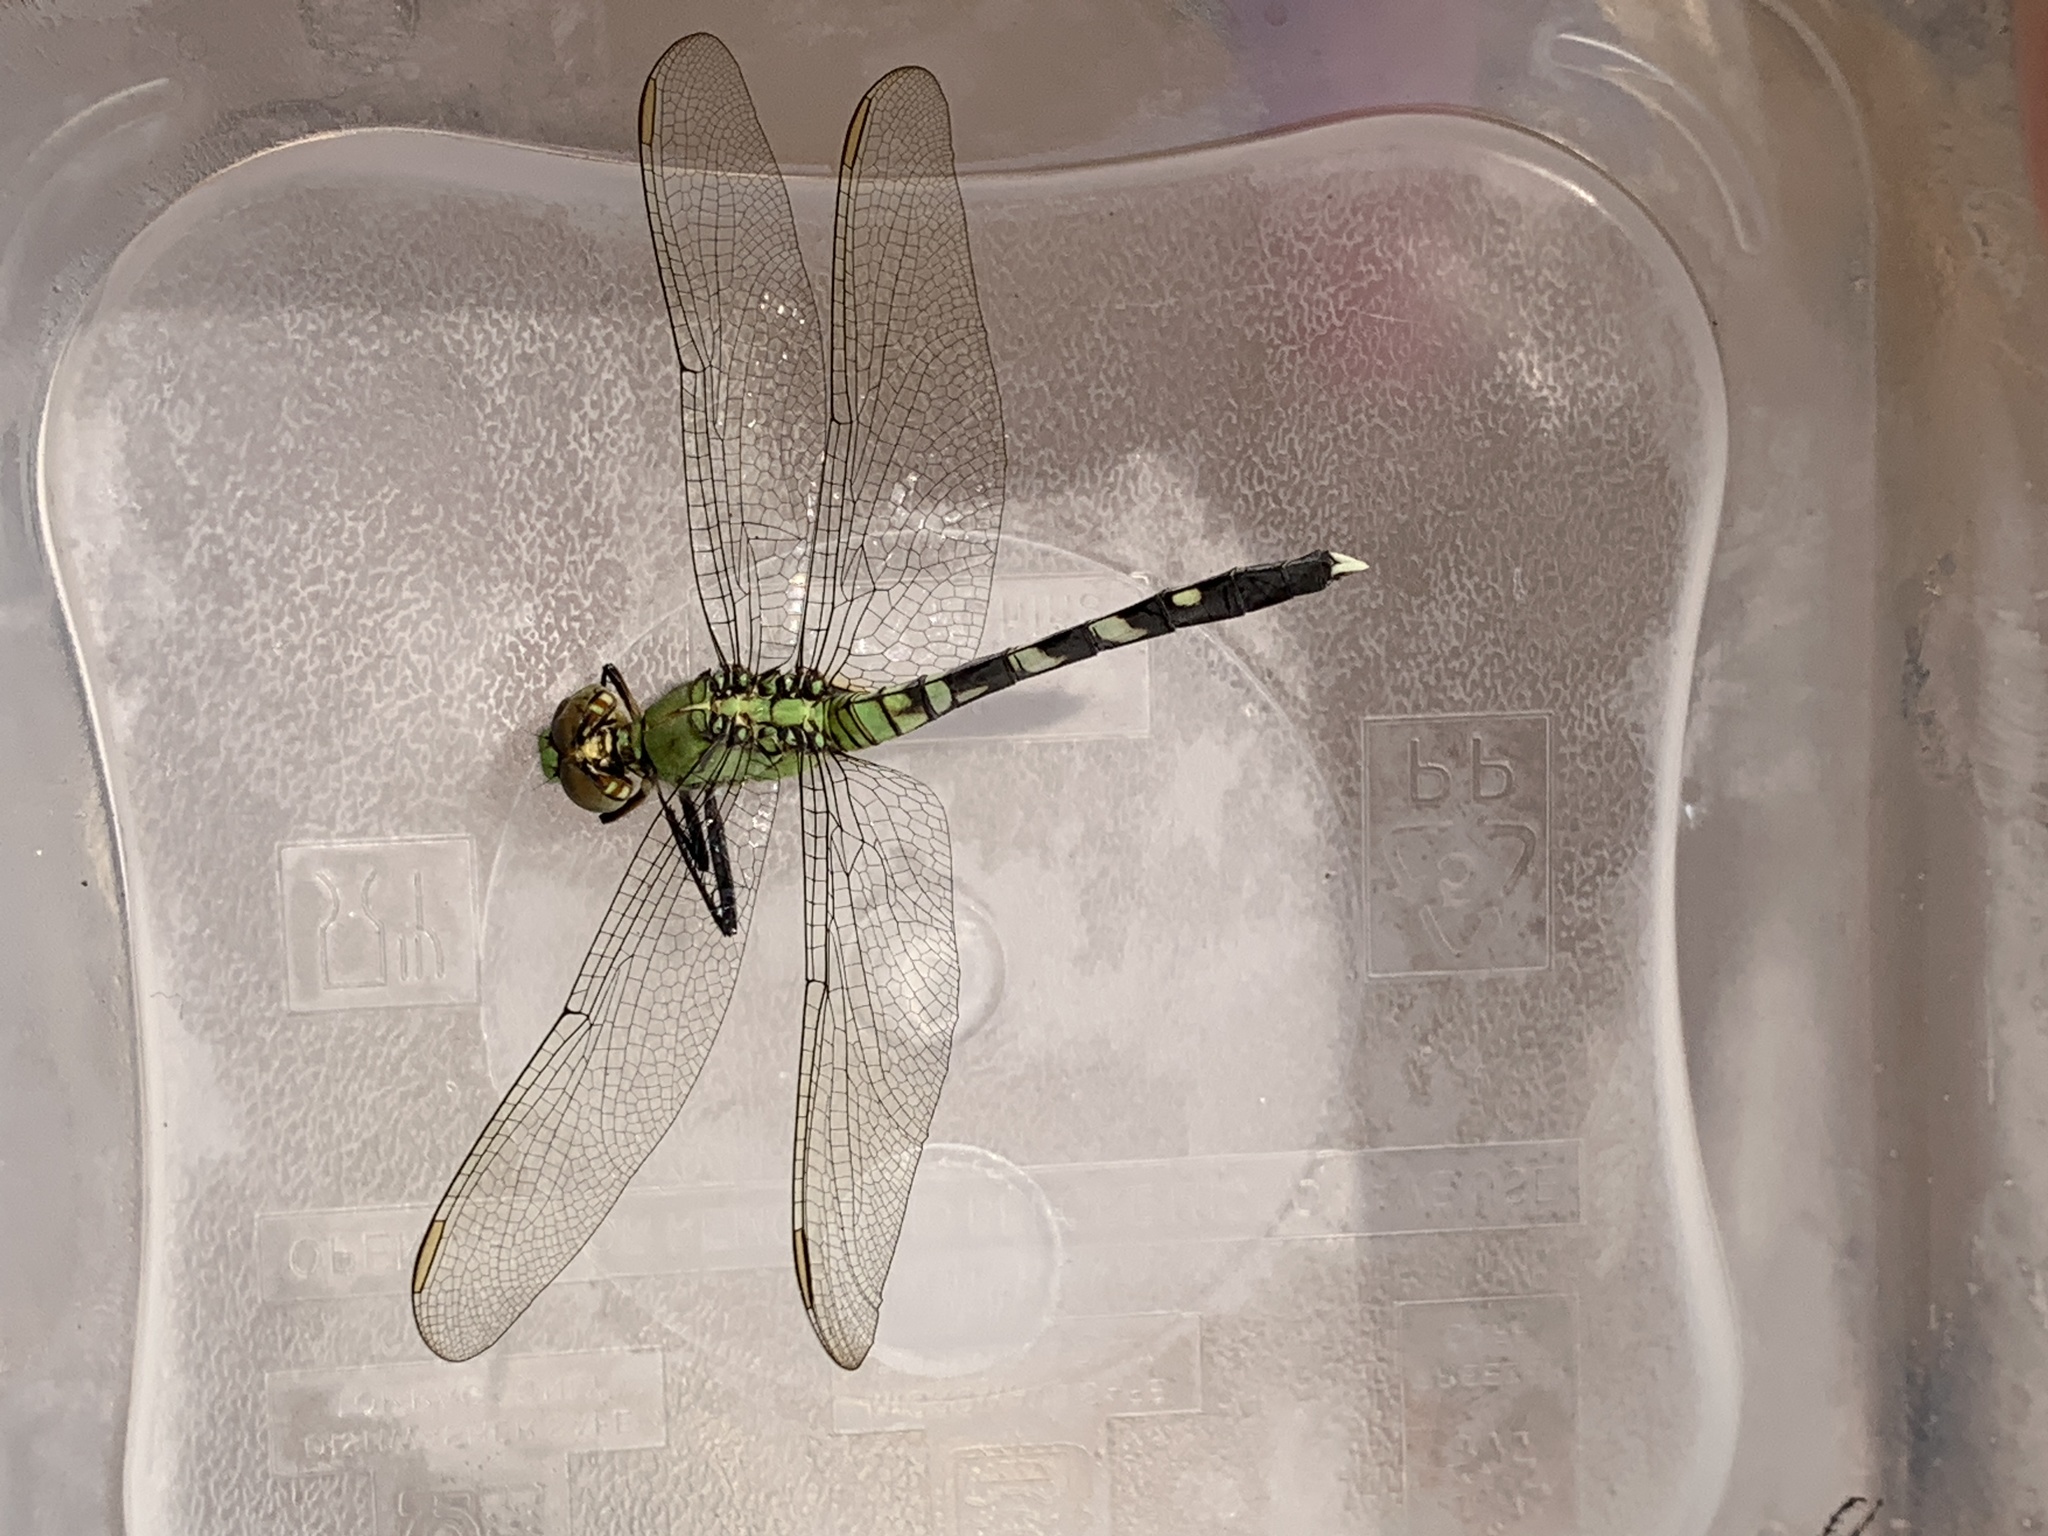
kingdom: Animalia
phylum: Arthropoda
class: Insecta
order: Odonata
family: Libellulidae
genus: Erythemis
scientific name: Erythemis simplicicollis
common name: Eastern pondhawk
